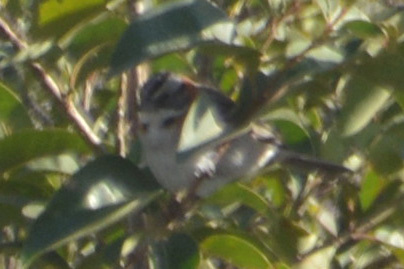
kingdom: Animalia
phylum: Chordata
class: Aves
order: Passeriformes
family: Passerellidae
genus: Zonotrichia
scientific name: Zonotrichia capensis
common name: Rufous-collared sparrow
